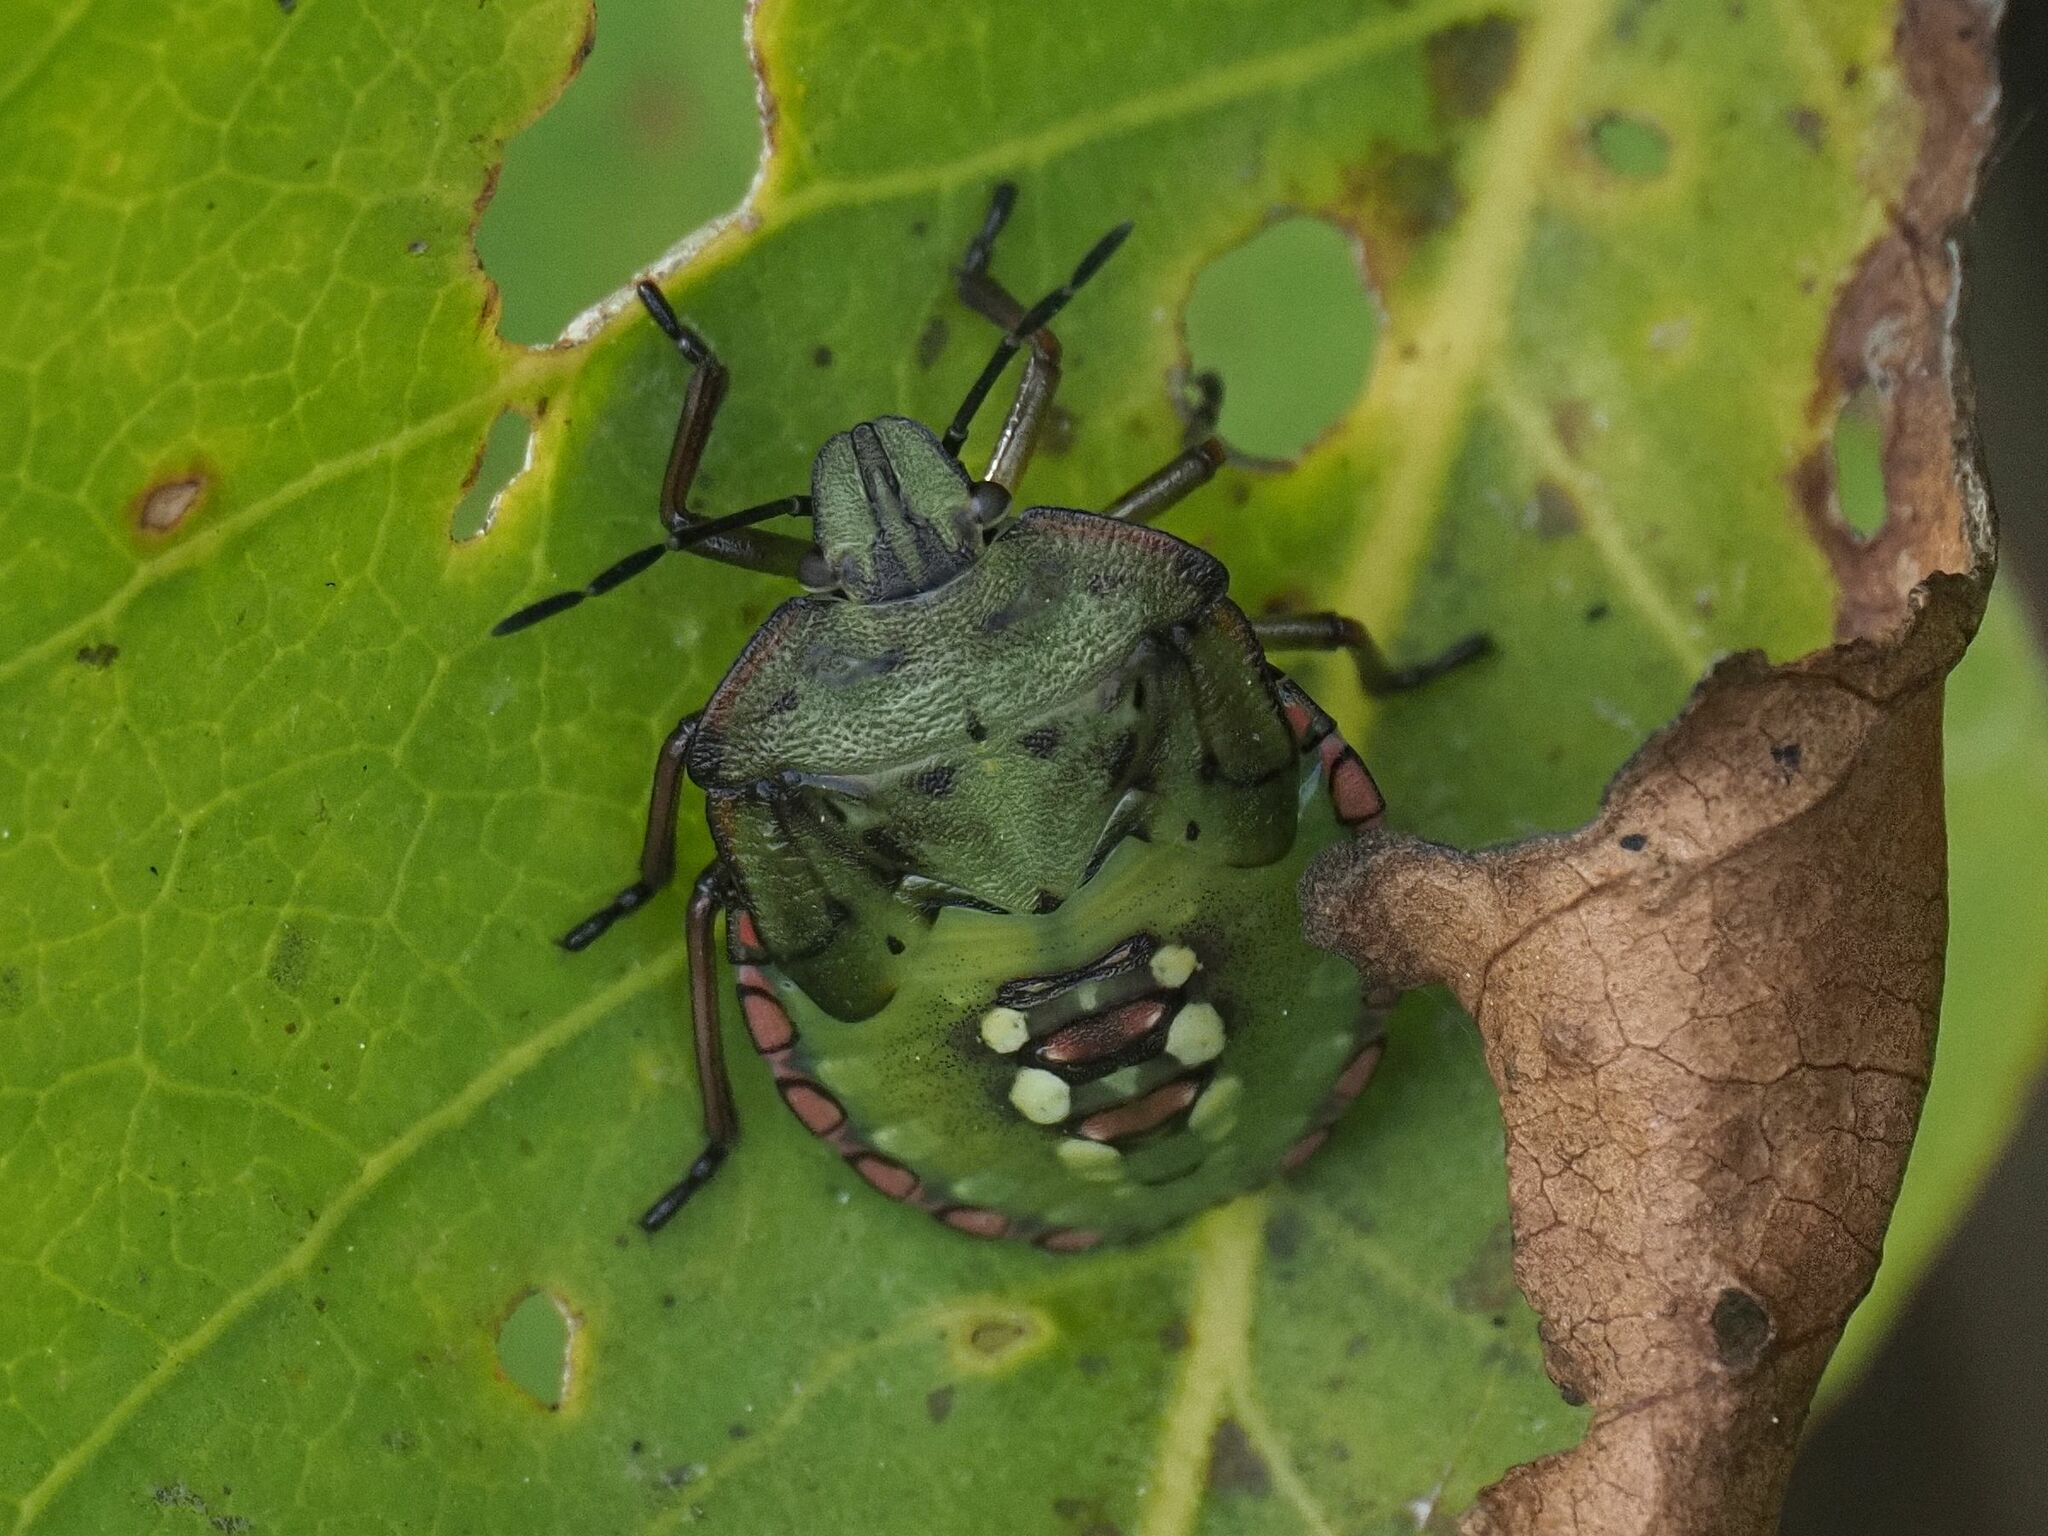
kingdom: Animalia
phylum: Arthropoda
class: Insecta
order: Hemiptera
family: Pentatomidae
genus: Nezara
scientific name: Nezara viridula
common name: Southern green stink bug
